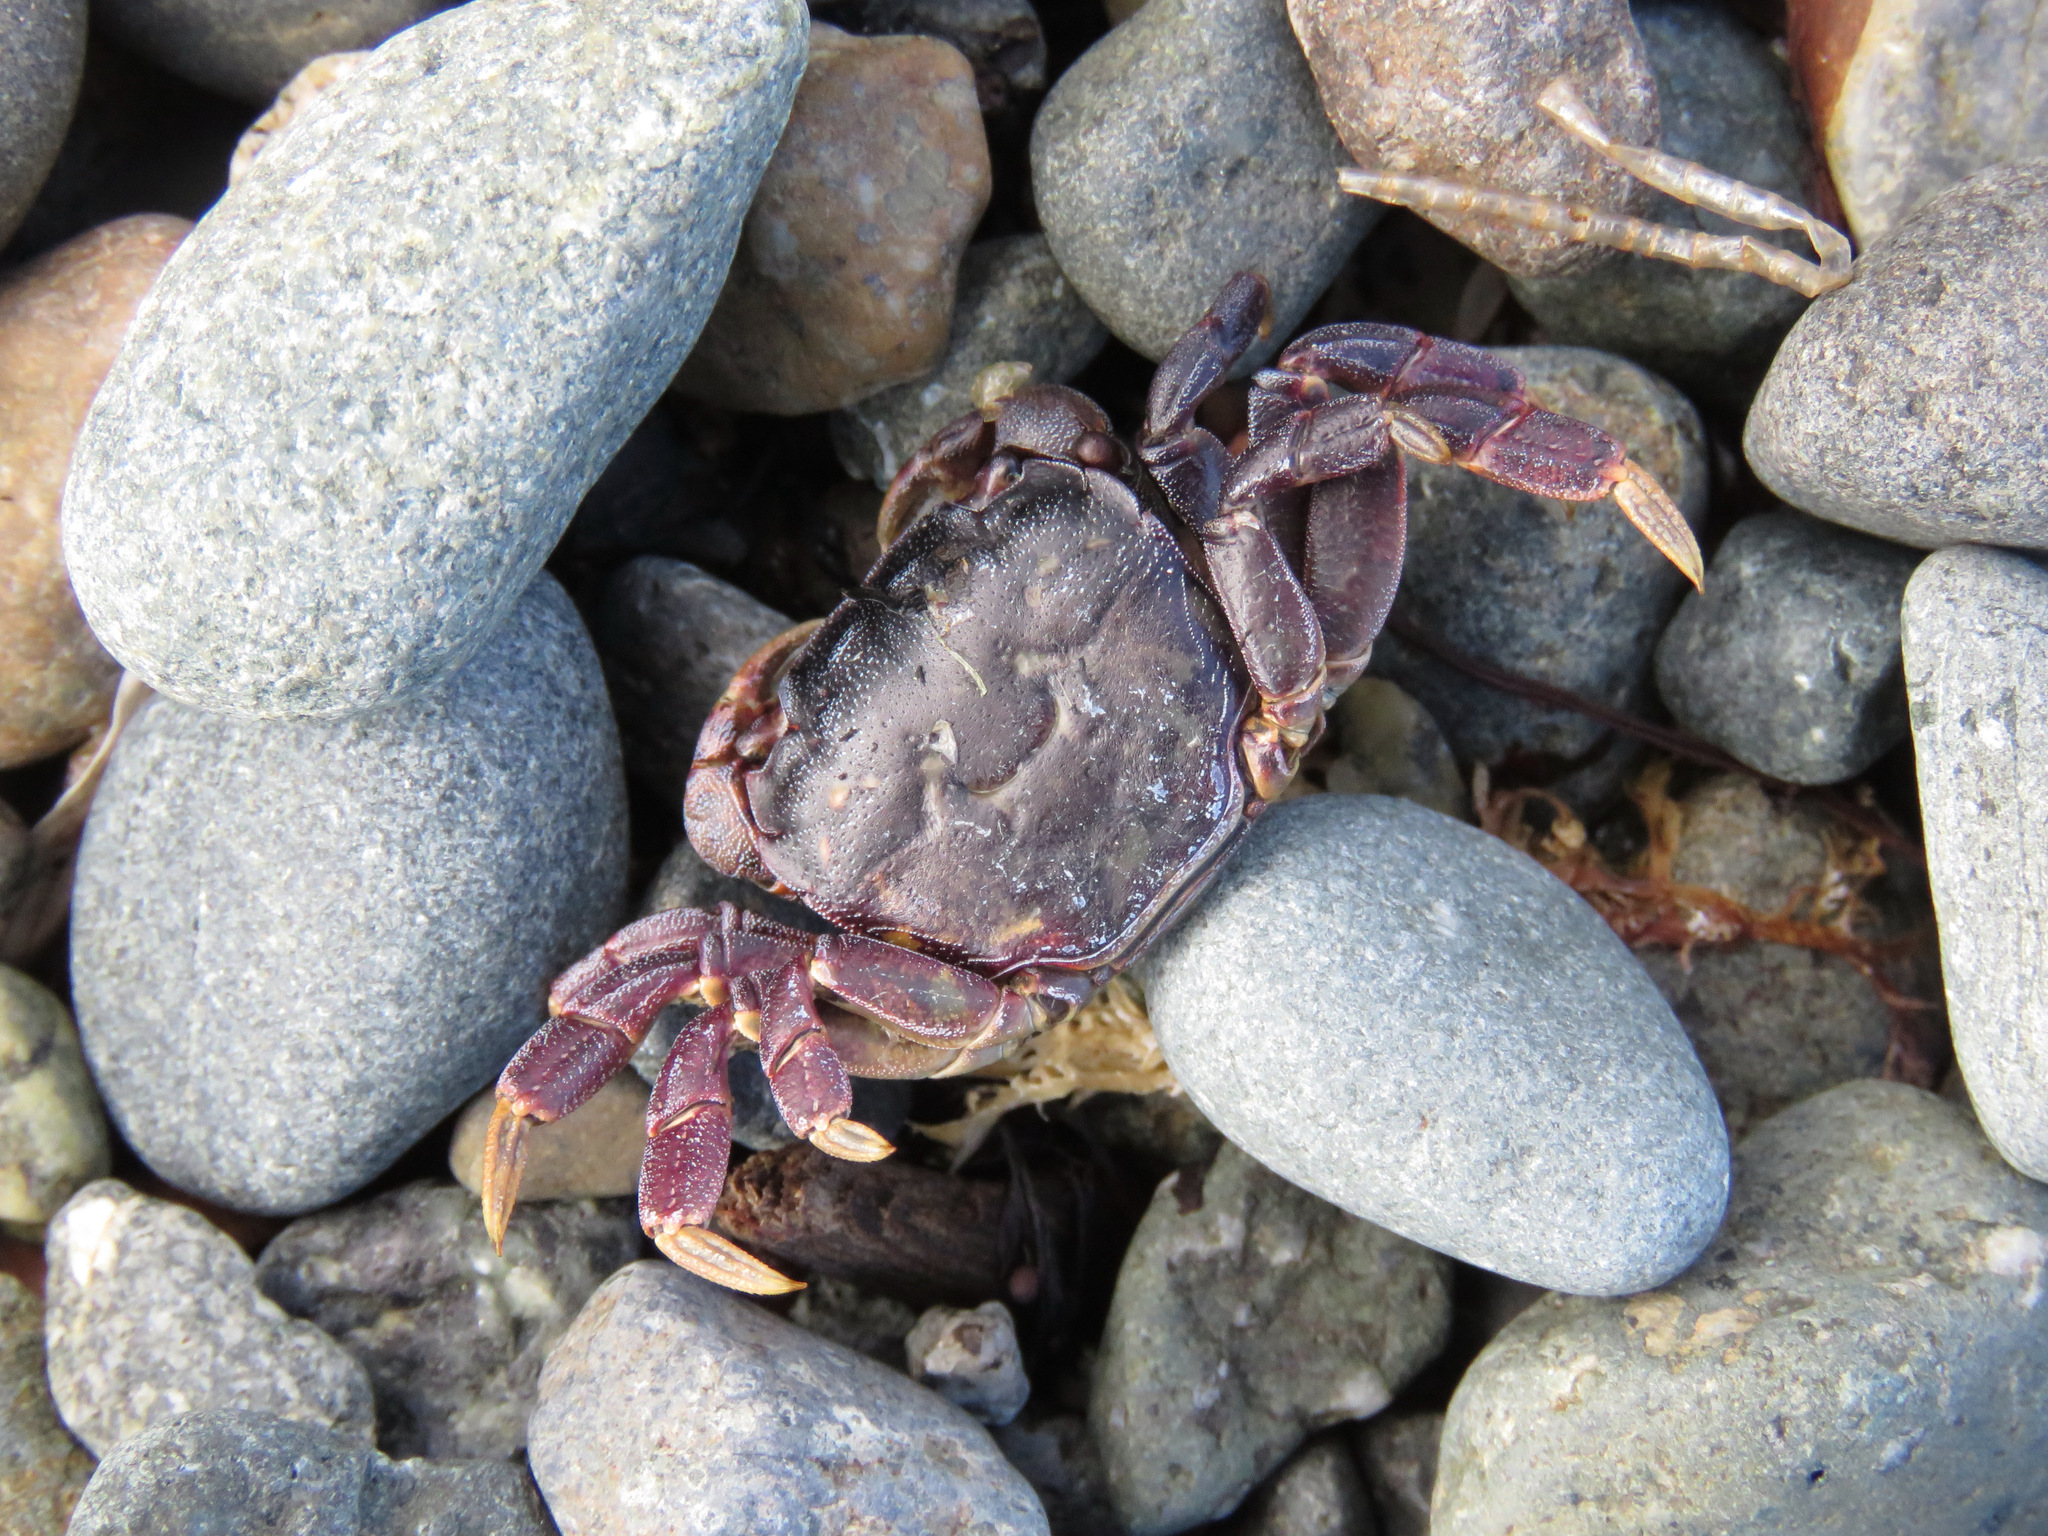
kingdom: Animalia
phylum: Arthropoda
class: Malacostraca
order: Decapoda
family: Varunidae
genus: Hemigrapsus
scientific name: Hemigrapsus nudus
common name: Purple shore crab
